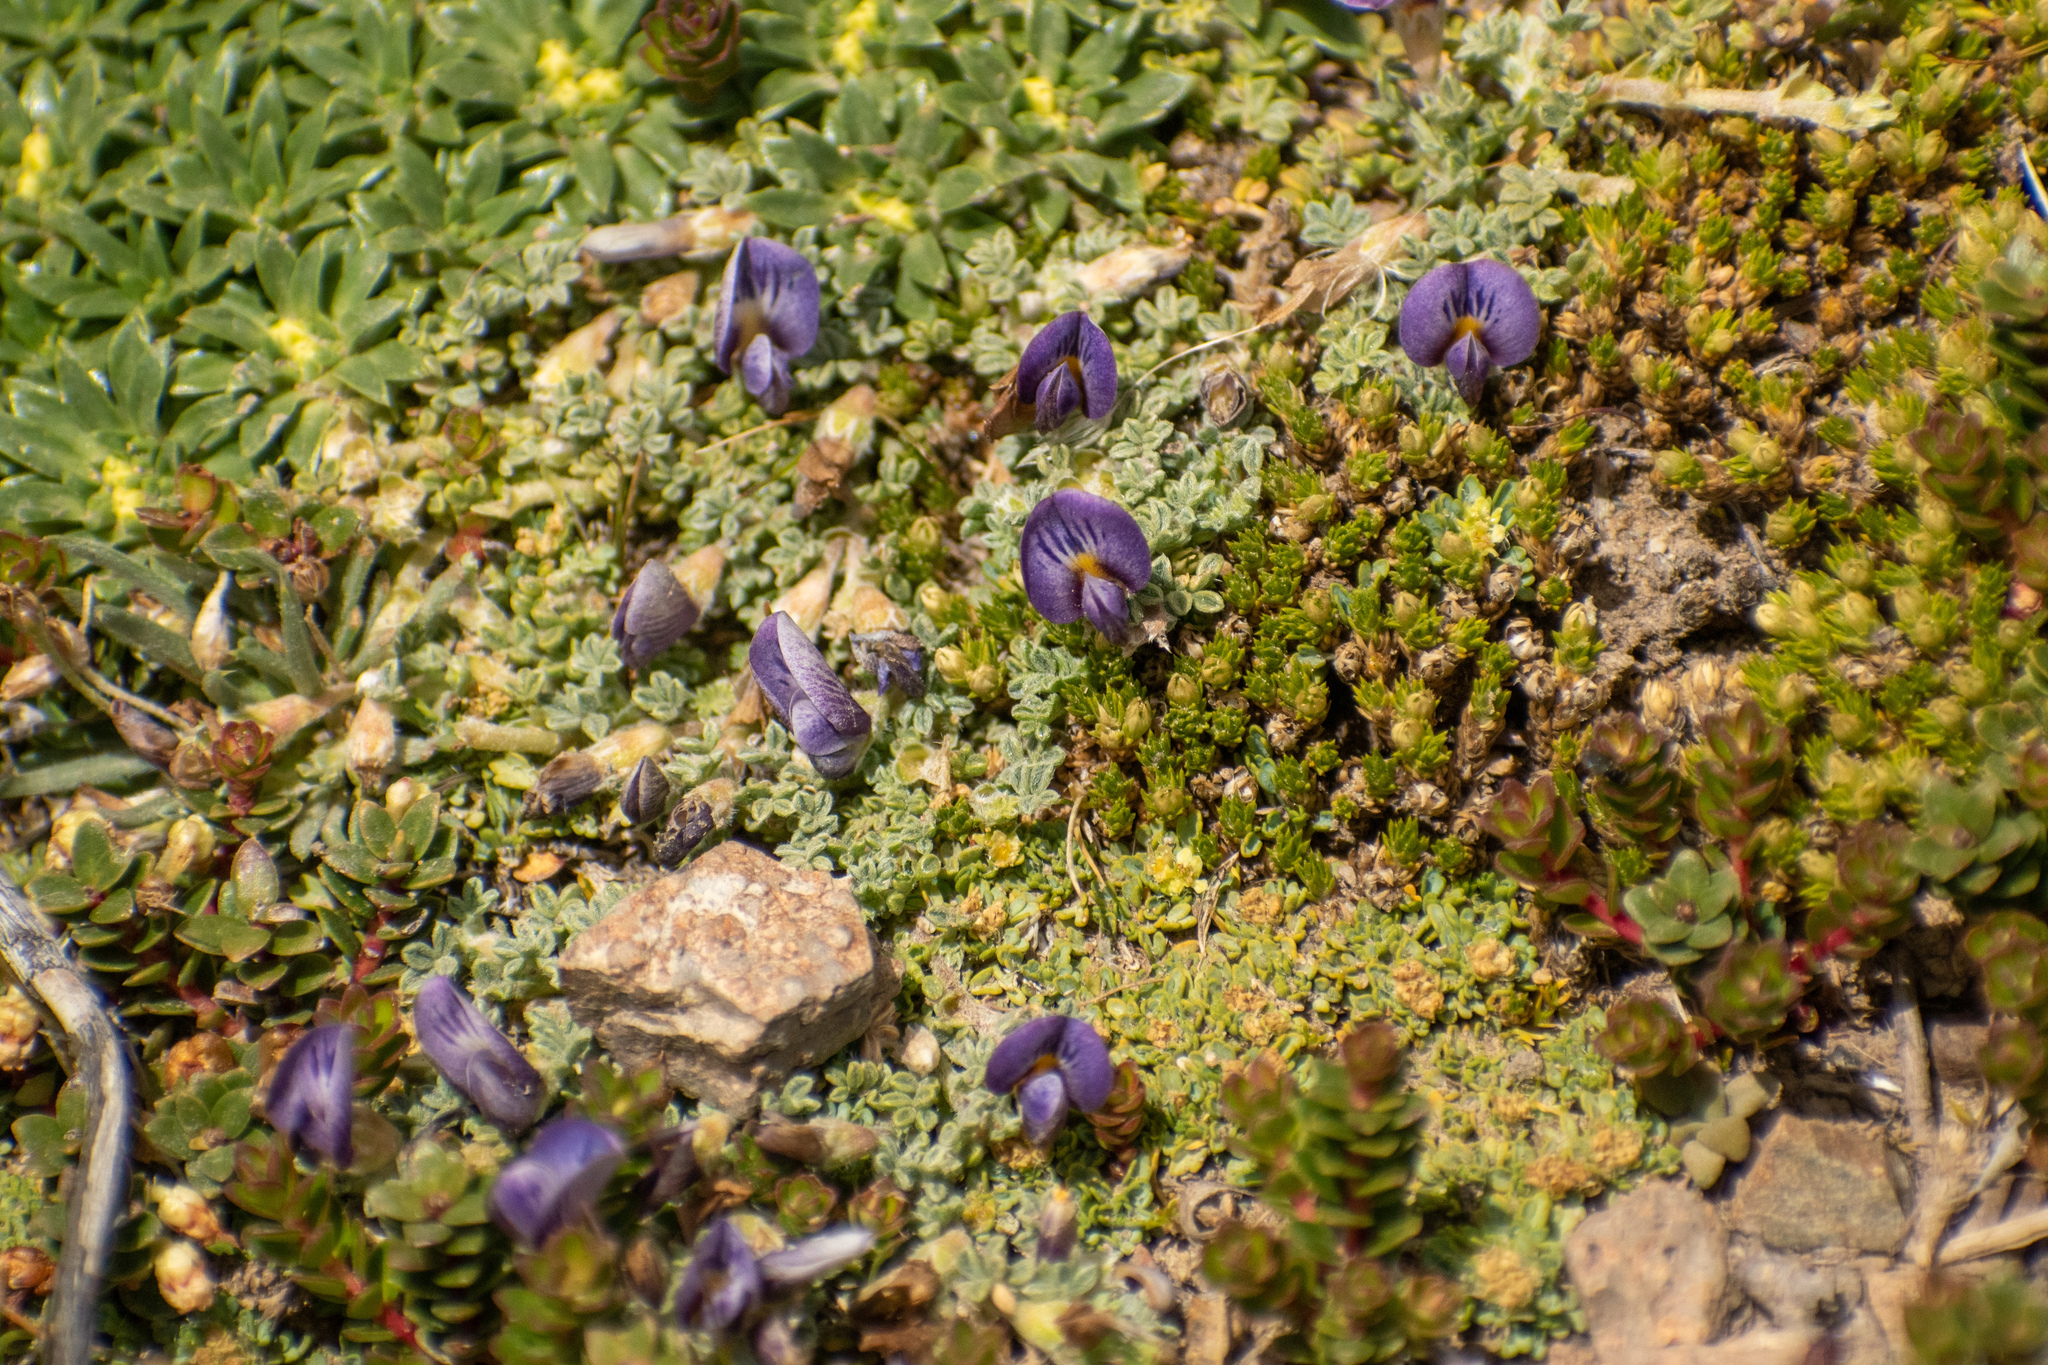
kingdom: Plantae
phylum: Tracheophyta
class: Magnoliopsida
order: Fabales
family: Fabaceae
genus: Adesmia
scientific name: Adesmia parvifolia
